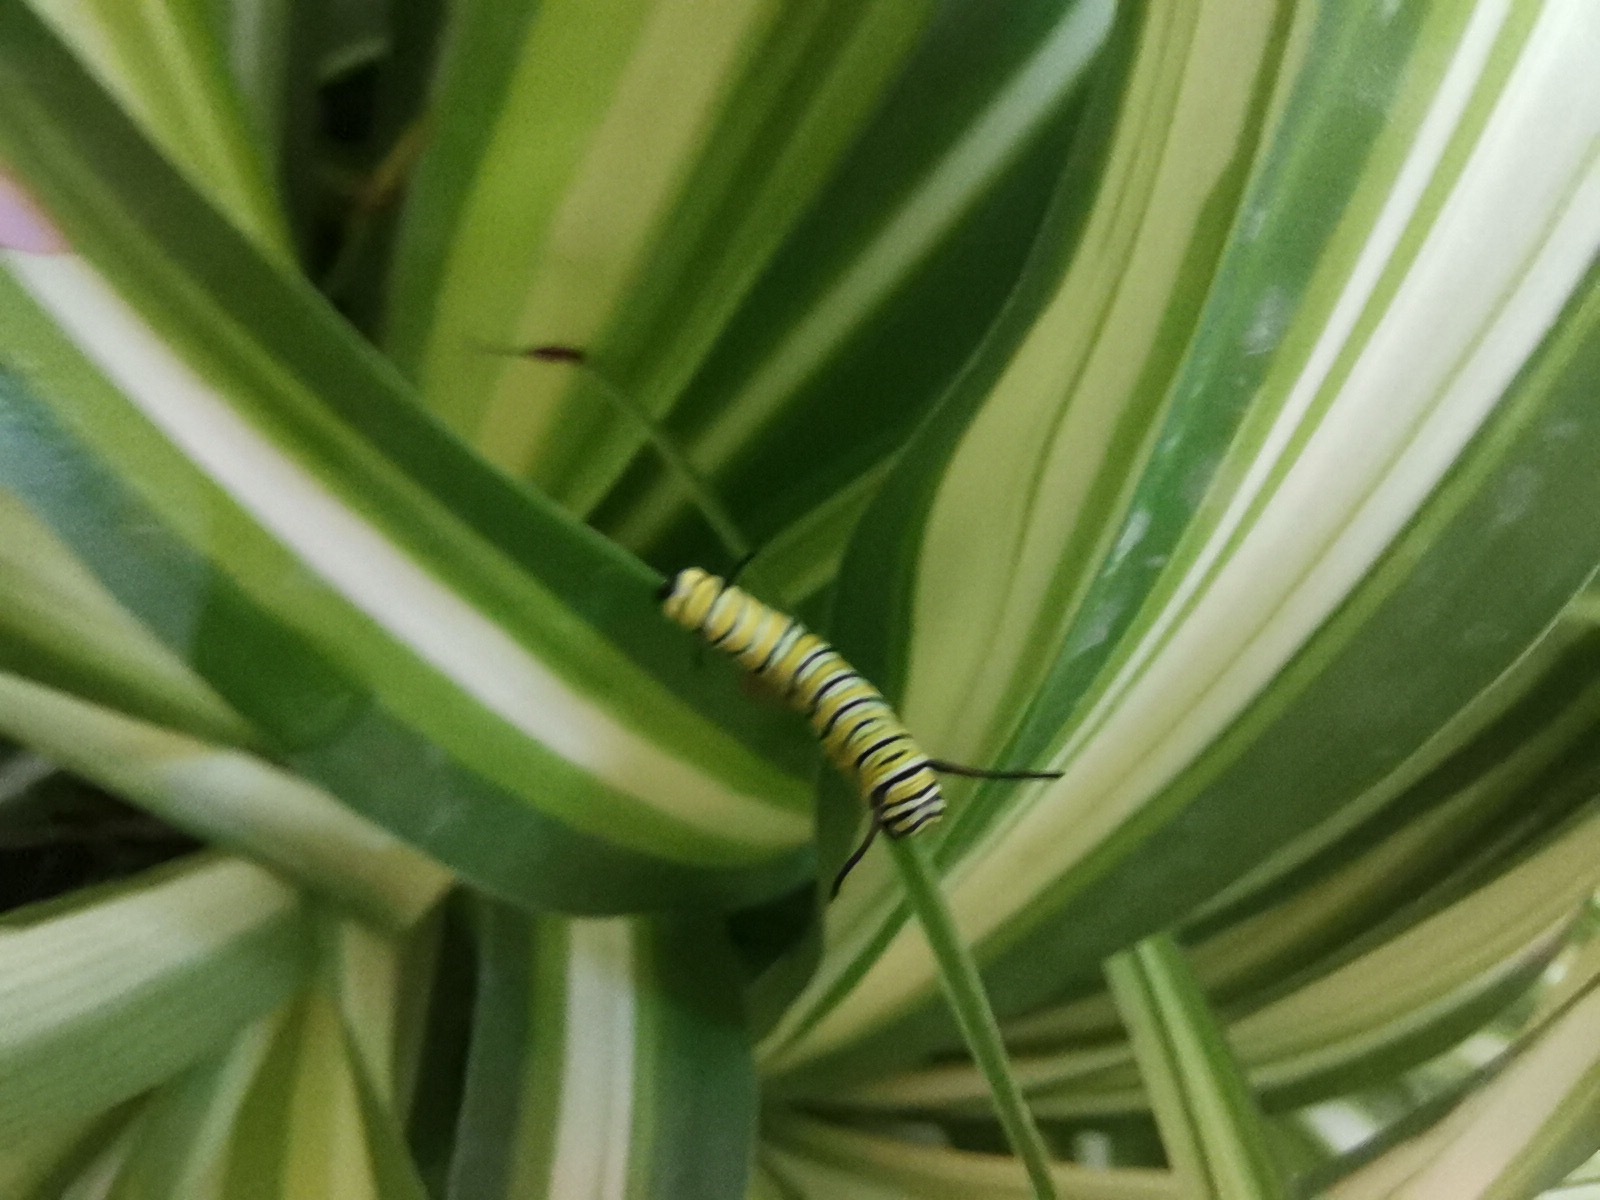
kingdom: Animalia
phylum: Arthropoda
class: Insecta
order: Lepidoptera
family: Nymphalidae
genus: Danaus
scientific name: Danaus plexippus
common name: Monarch
